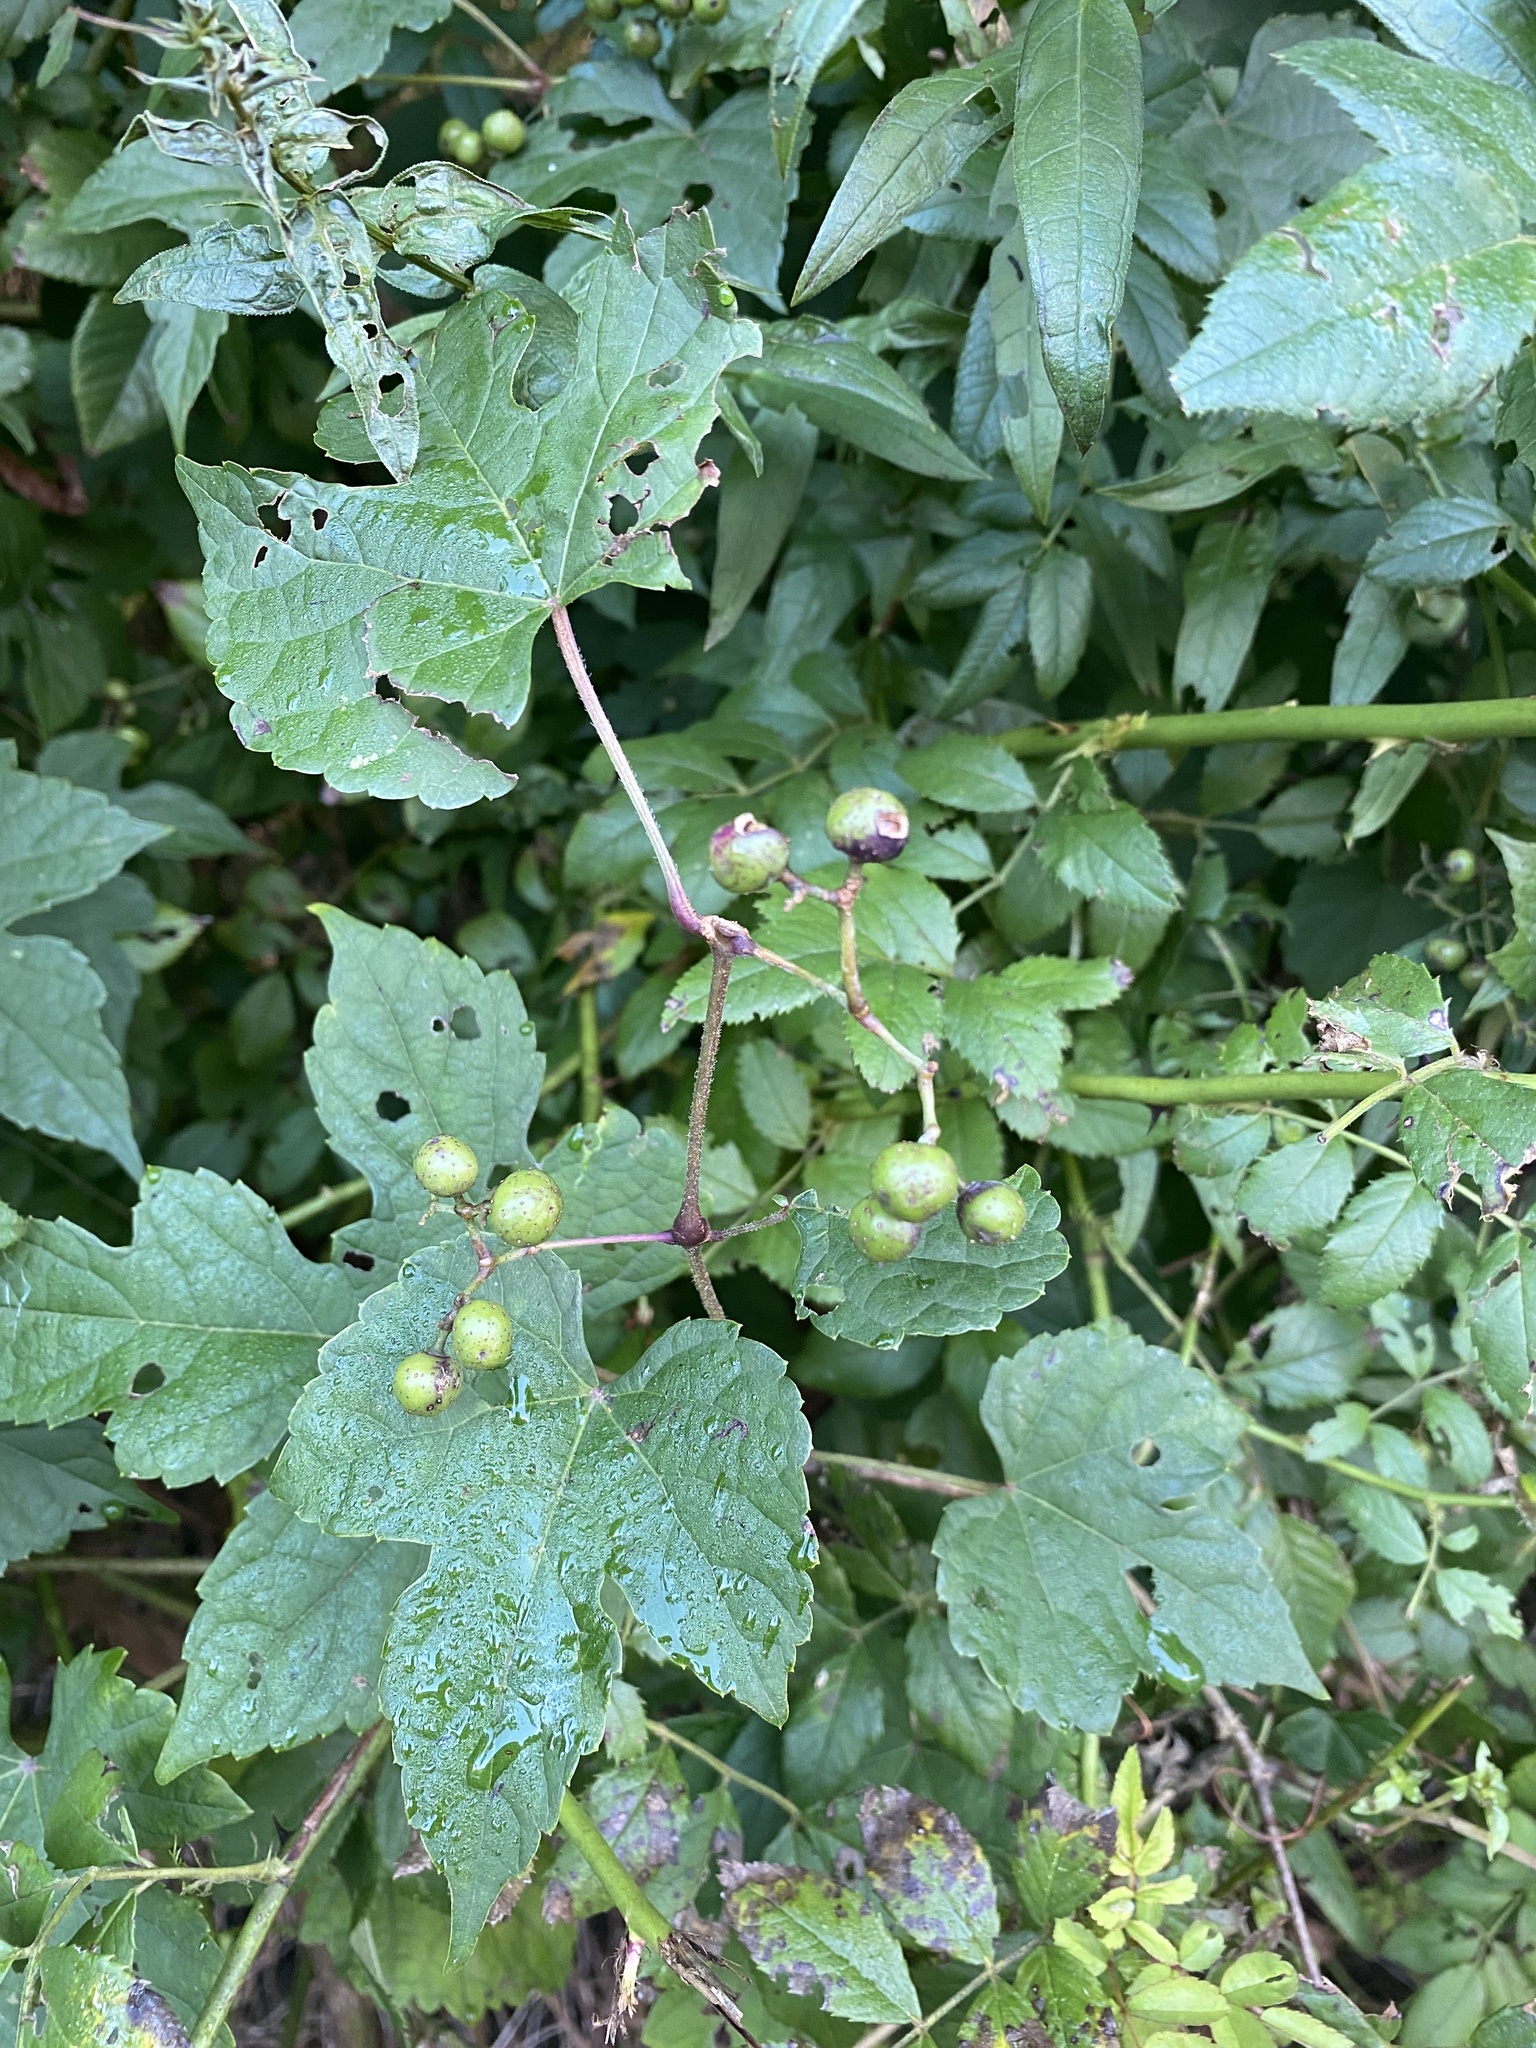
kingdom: Plantae
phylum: Tracheophyta
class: Magnoliopsida
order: Vitales
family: Vitaceae
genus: Ampelopsis
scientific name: Ampelopsis glandulosa
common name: Amur peppervine
